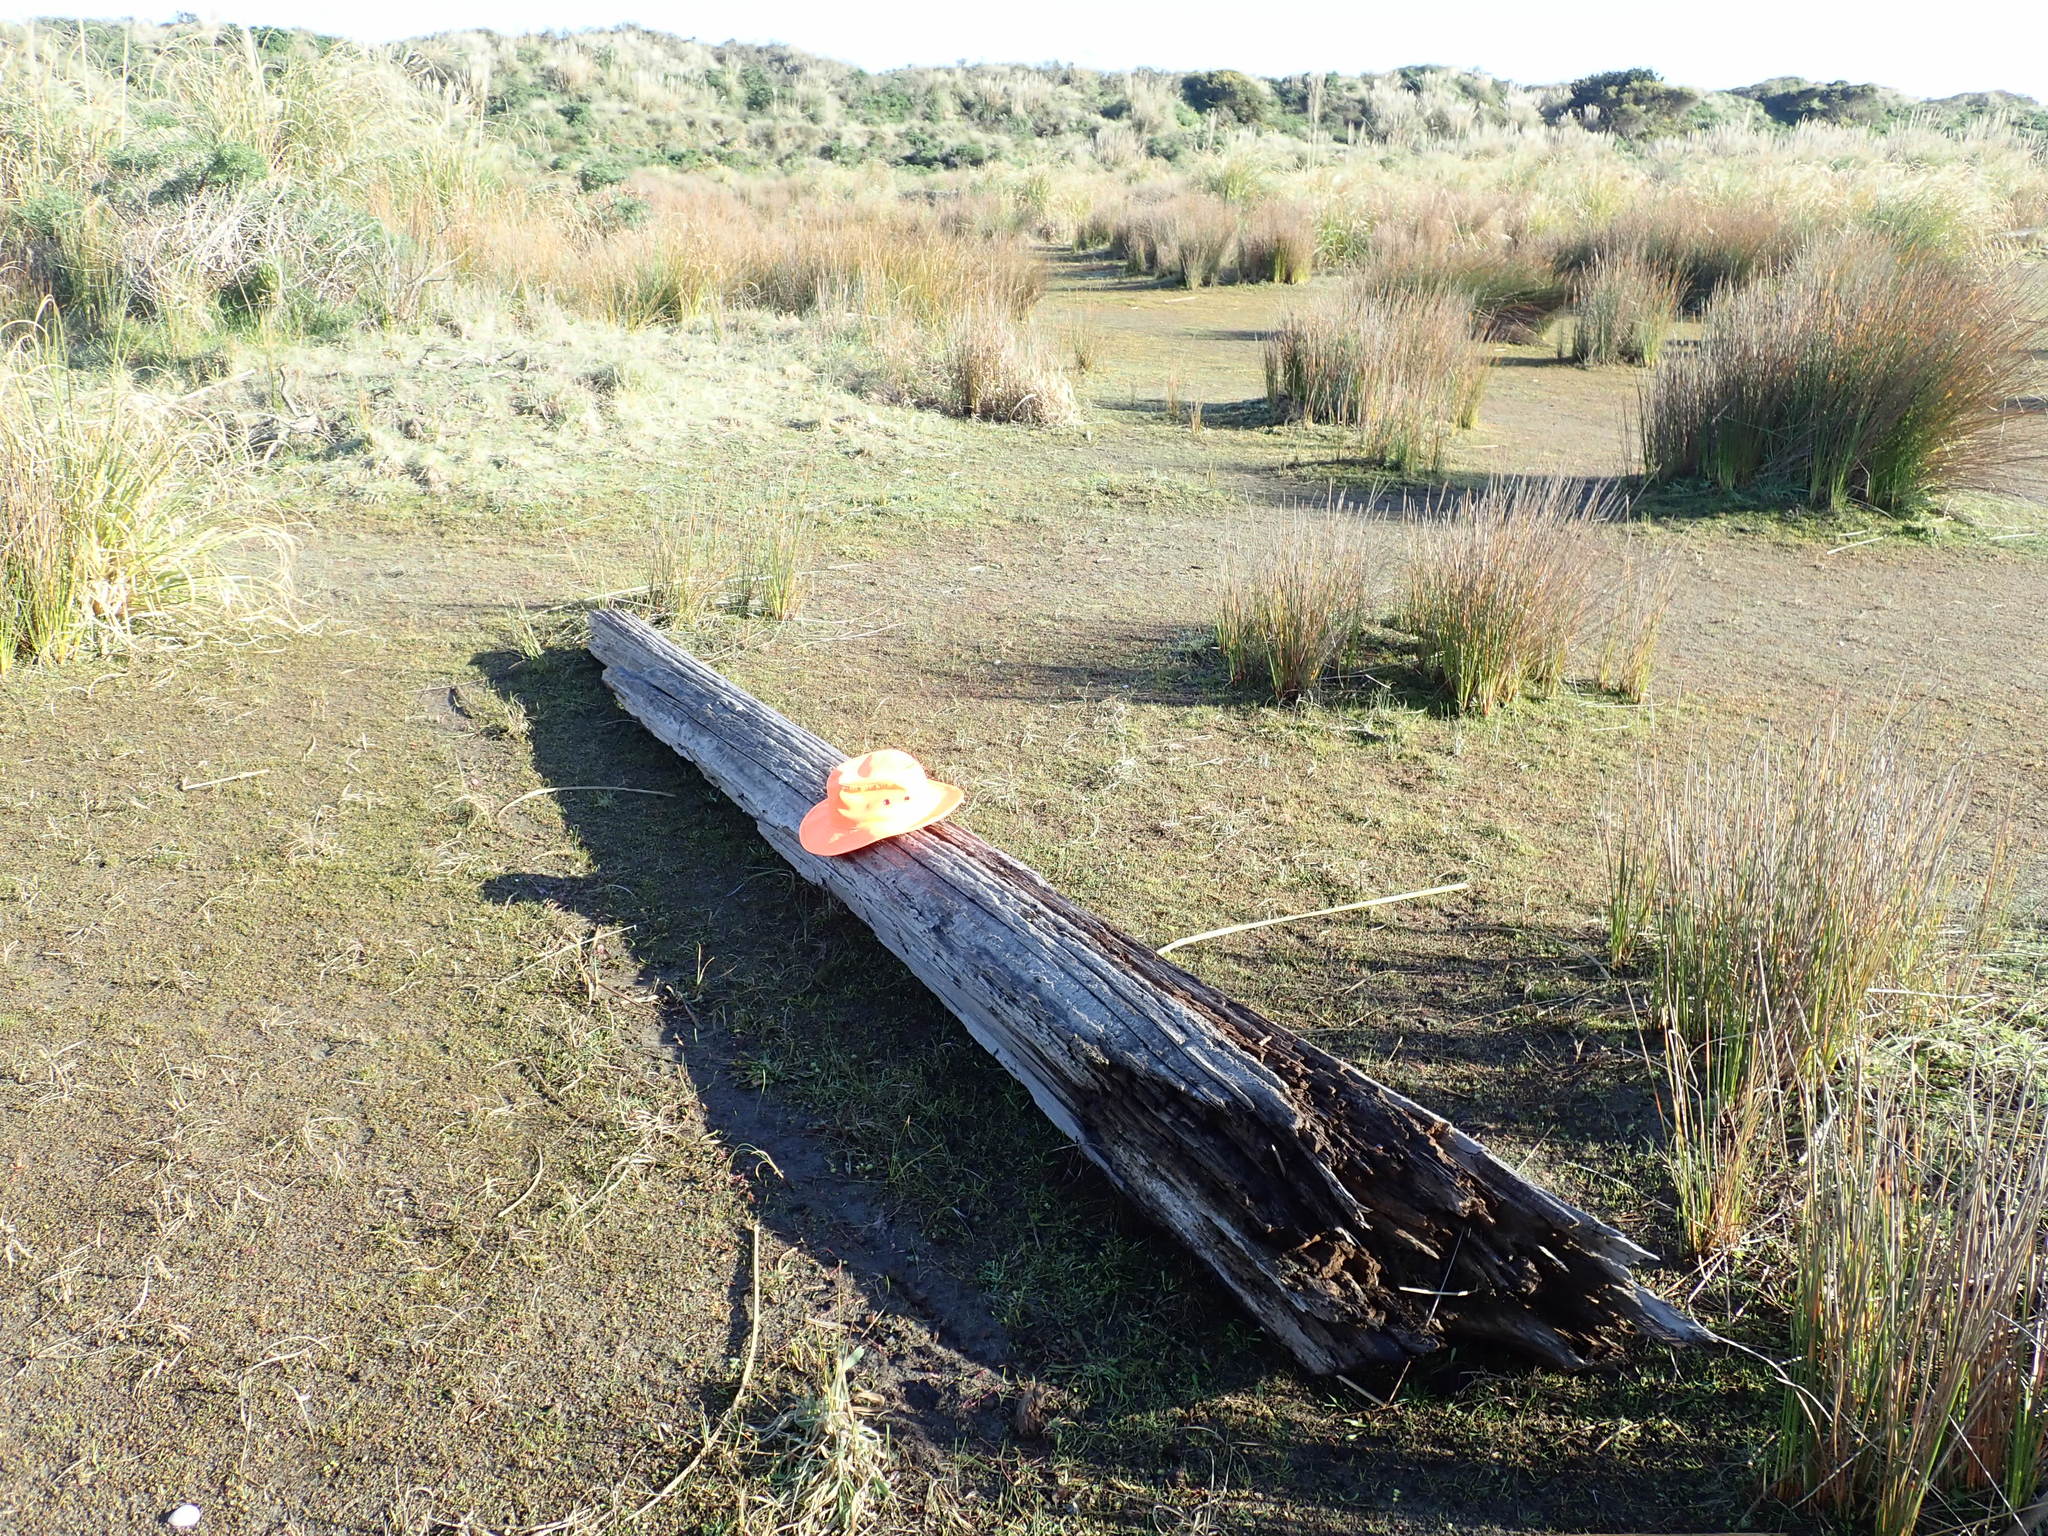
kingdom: Animalia
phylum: Arthropoda
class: Malacostraca
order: Isopoda
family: Porcellionidae
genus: Porcellio
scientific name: Porcellio scaber
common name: Common rough woodlouse
